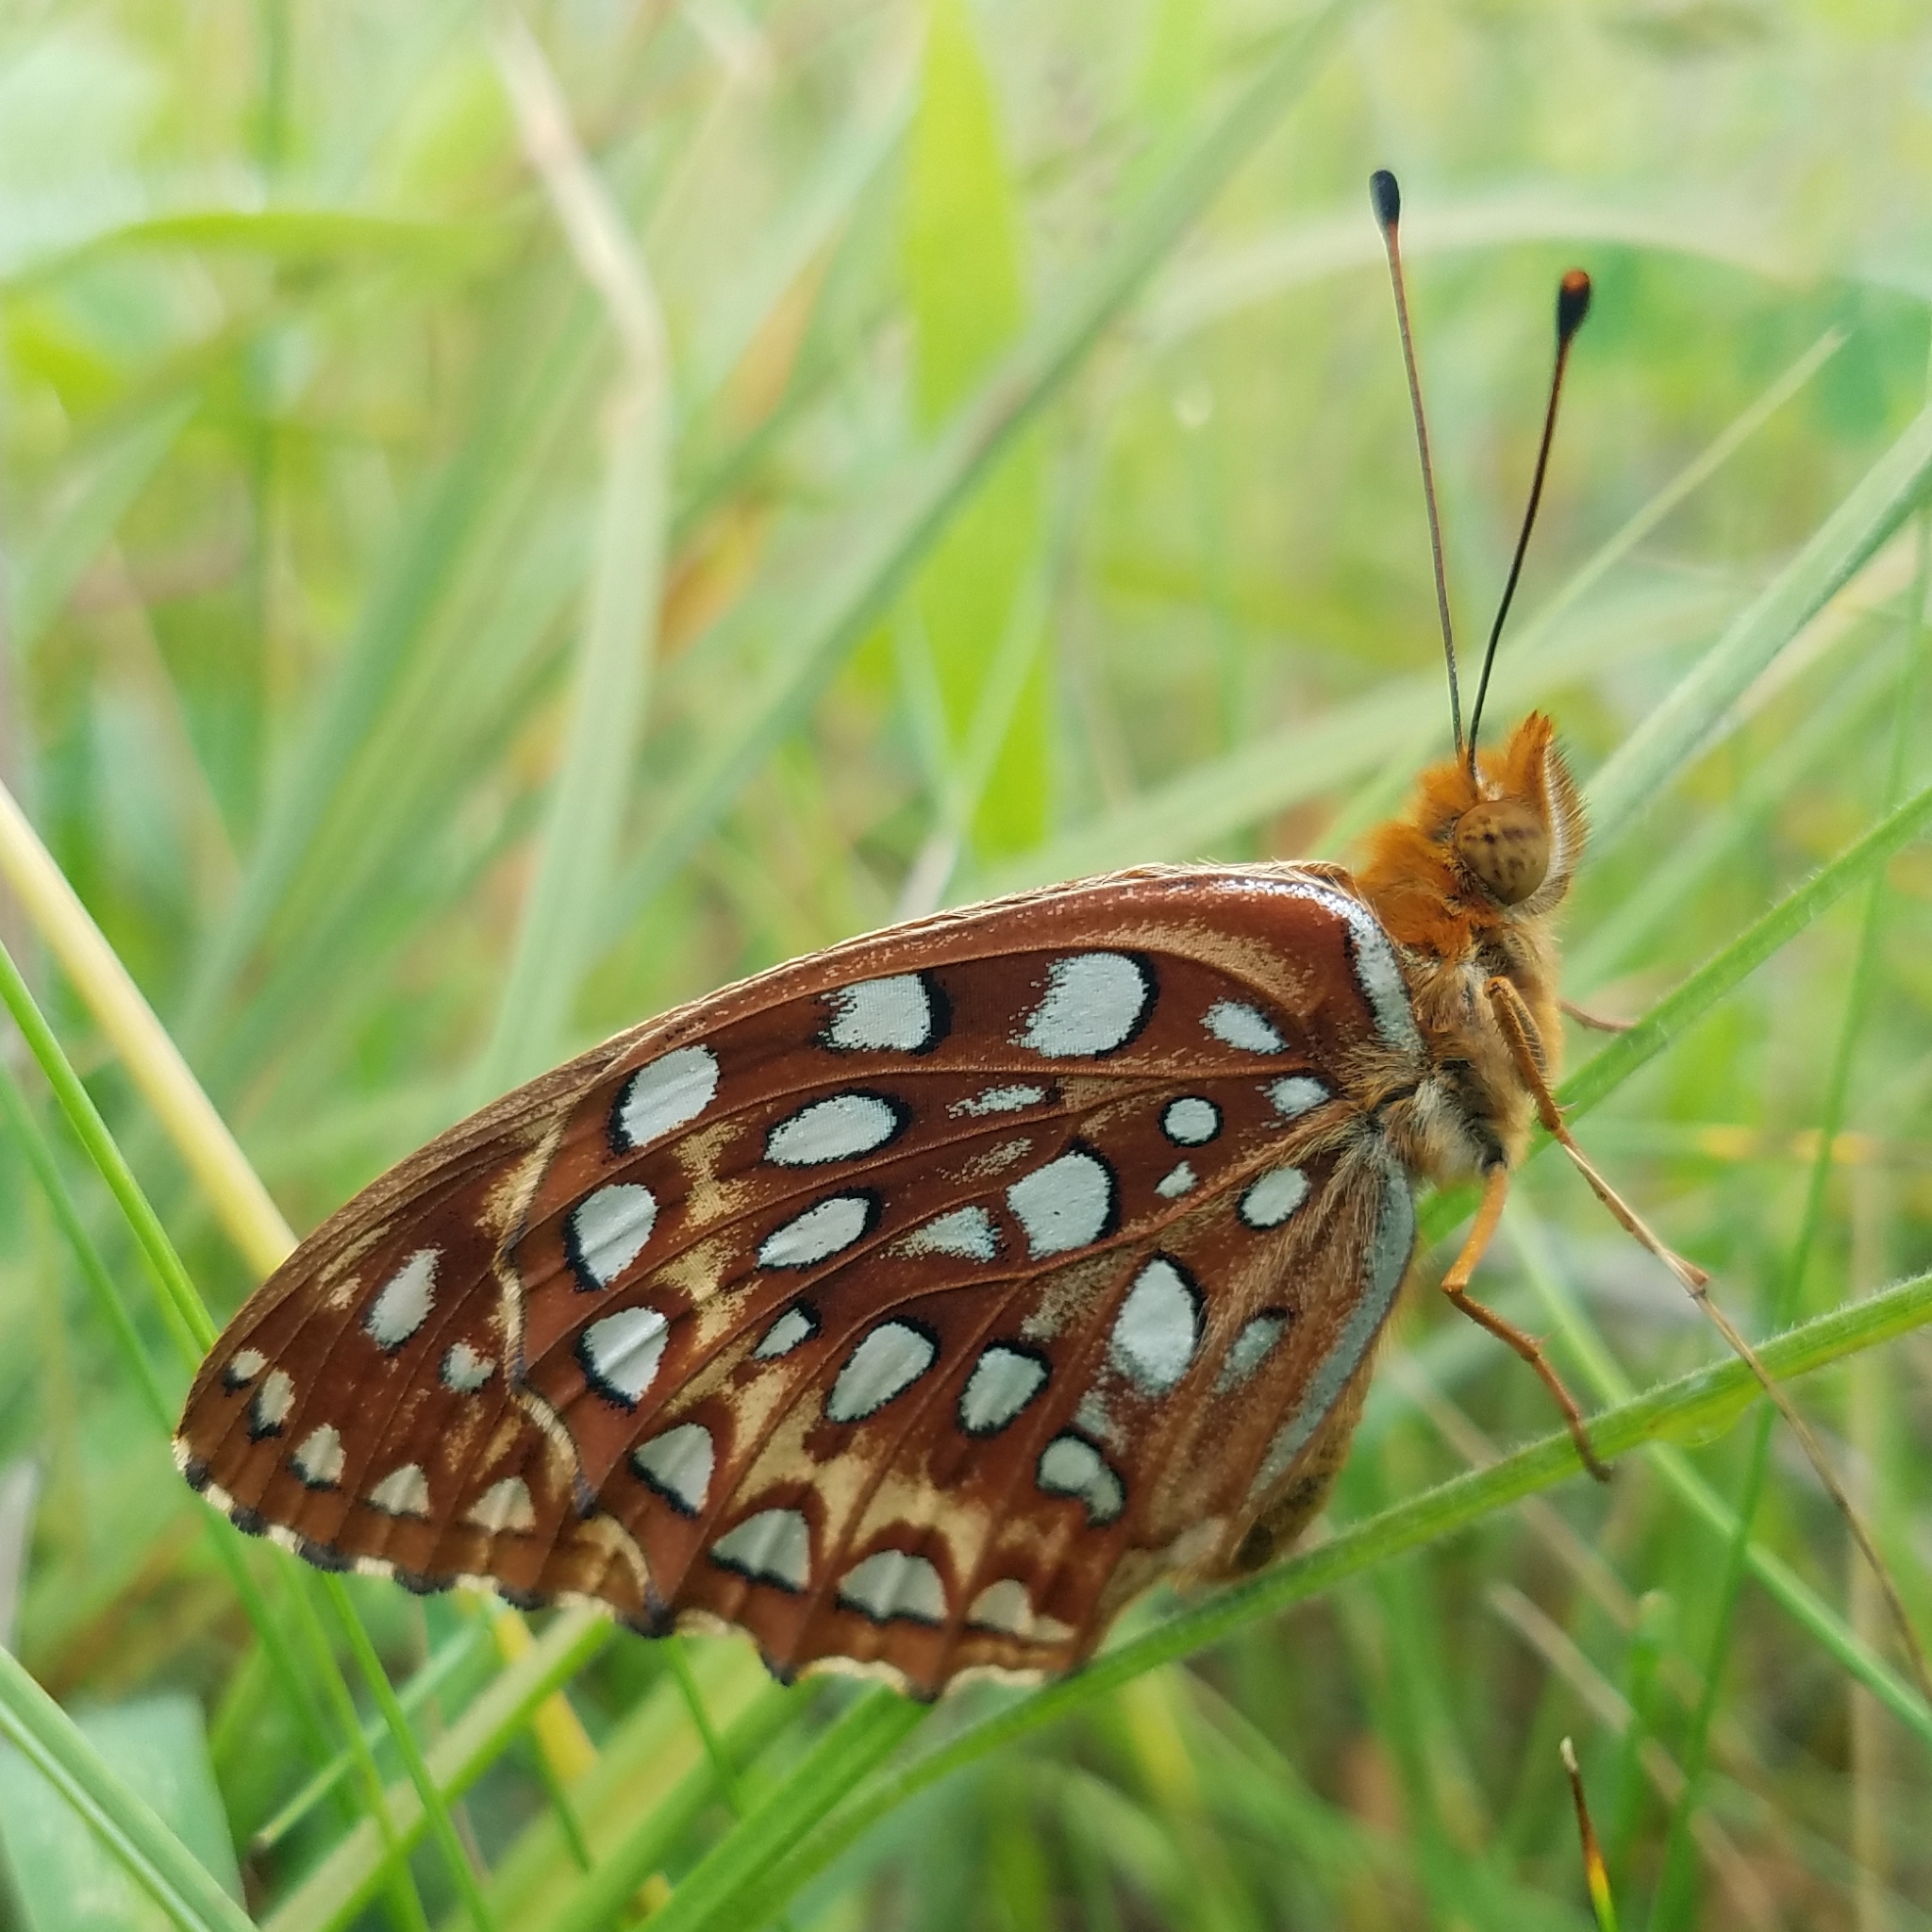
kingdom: Animalia
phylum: Arthropoda
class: Insecta
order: Lepidoptera
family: Nymphalidae
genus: Speyeria
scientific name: Speyeria aphrodite
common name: Aphrodite friitllary
